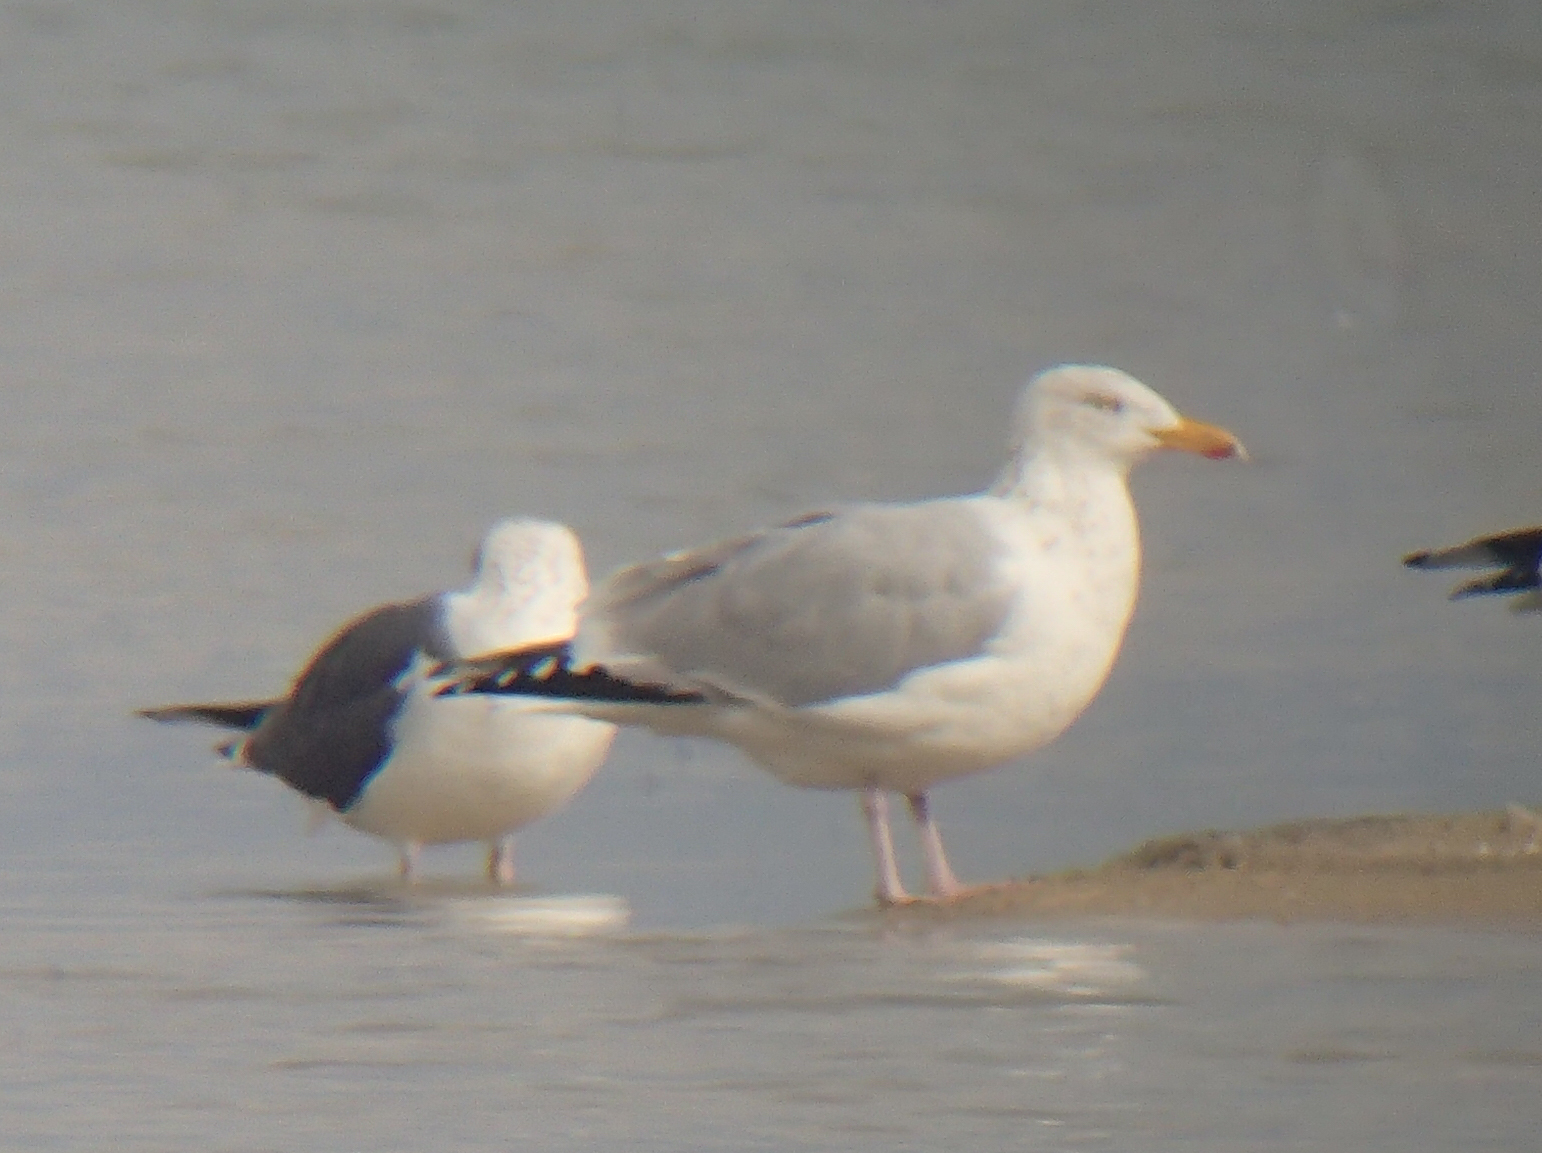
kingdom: Animalia
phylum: Chordata
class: Aves
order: Charadriiformes
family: Laridae
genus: Larus
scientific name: Larus argentatus
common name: Herring gull
